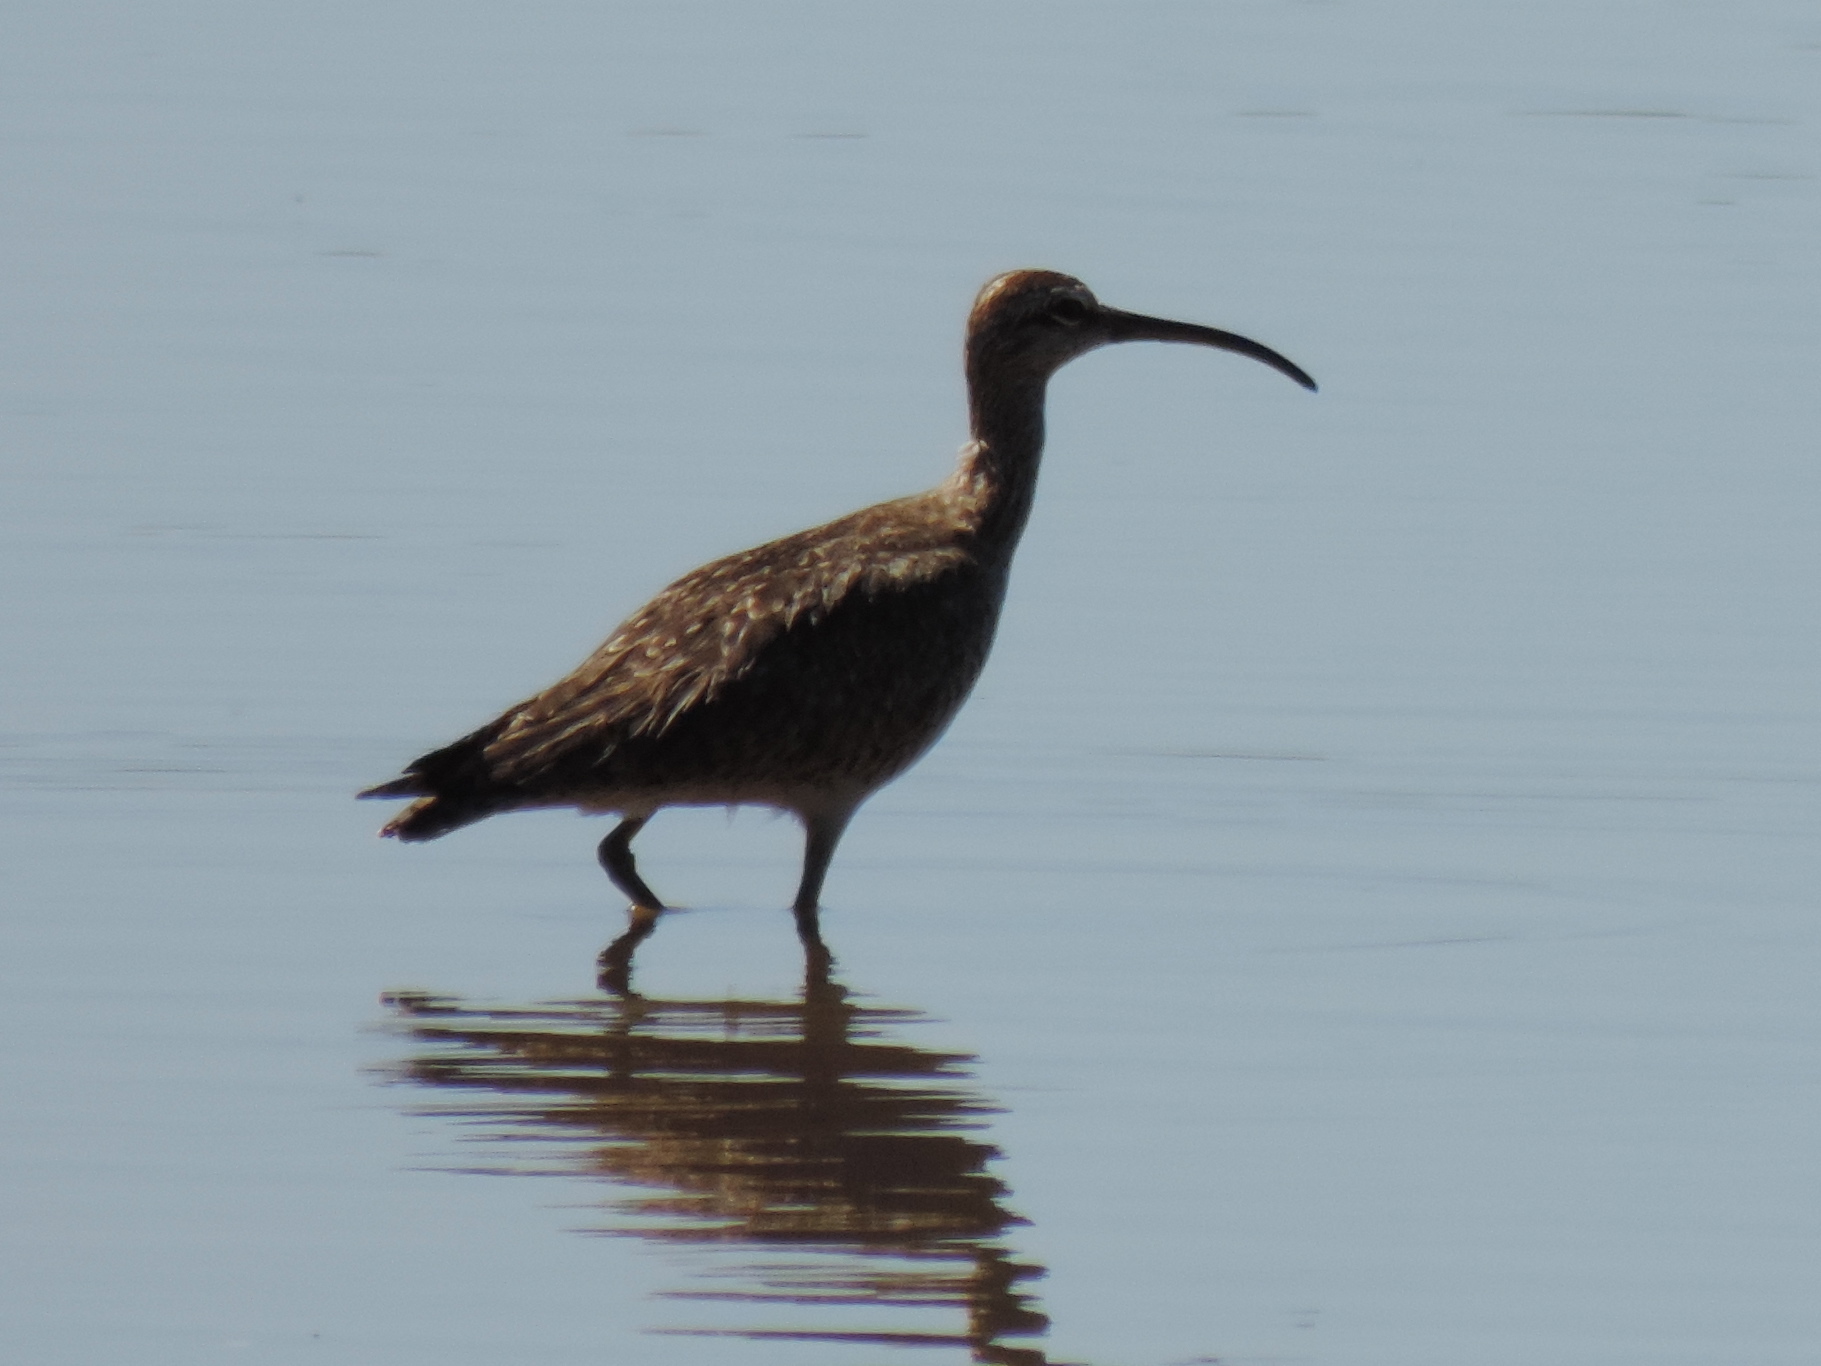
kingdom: Animalia
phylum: Chordata
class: Aves
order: Charadriiformes
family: Scolopacidae
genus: Numenius
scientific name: Numenius phaeopus
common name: Whimbrel
